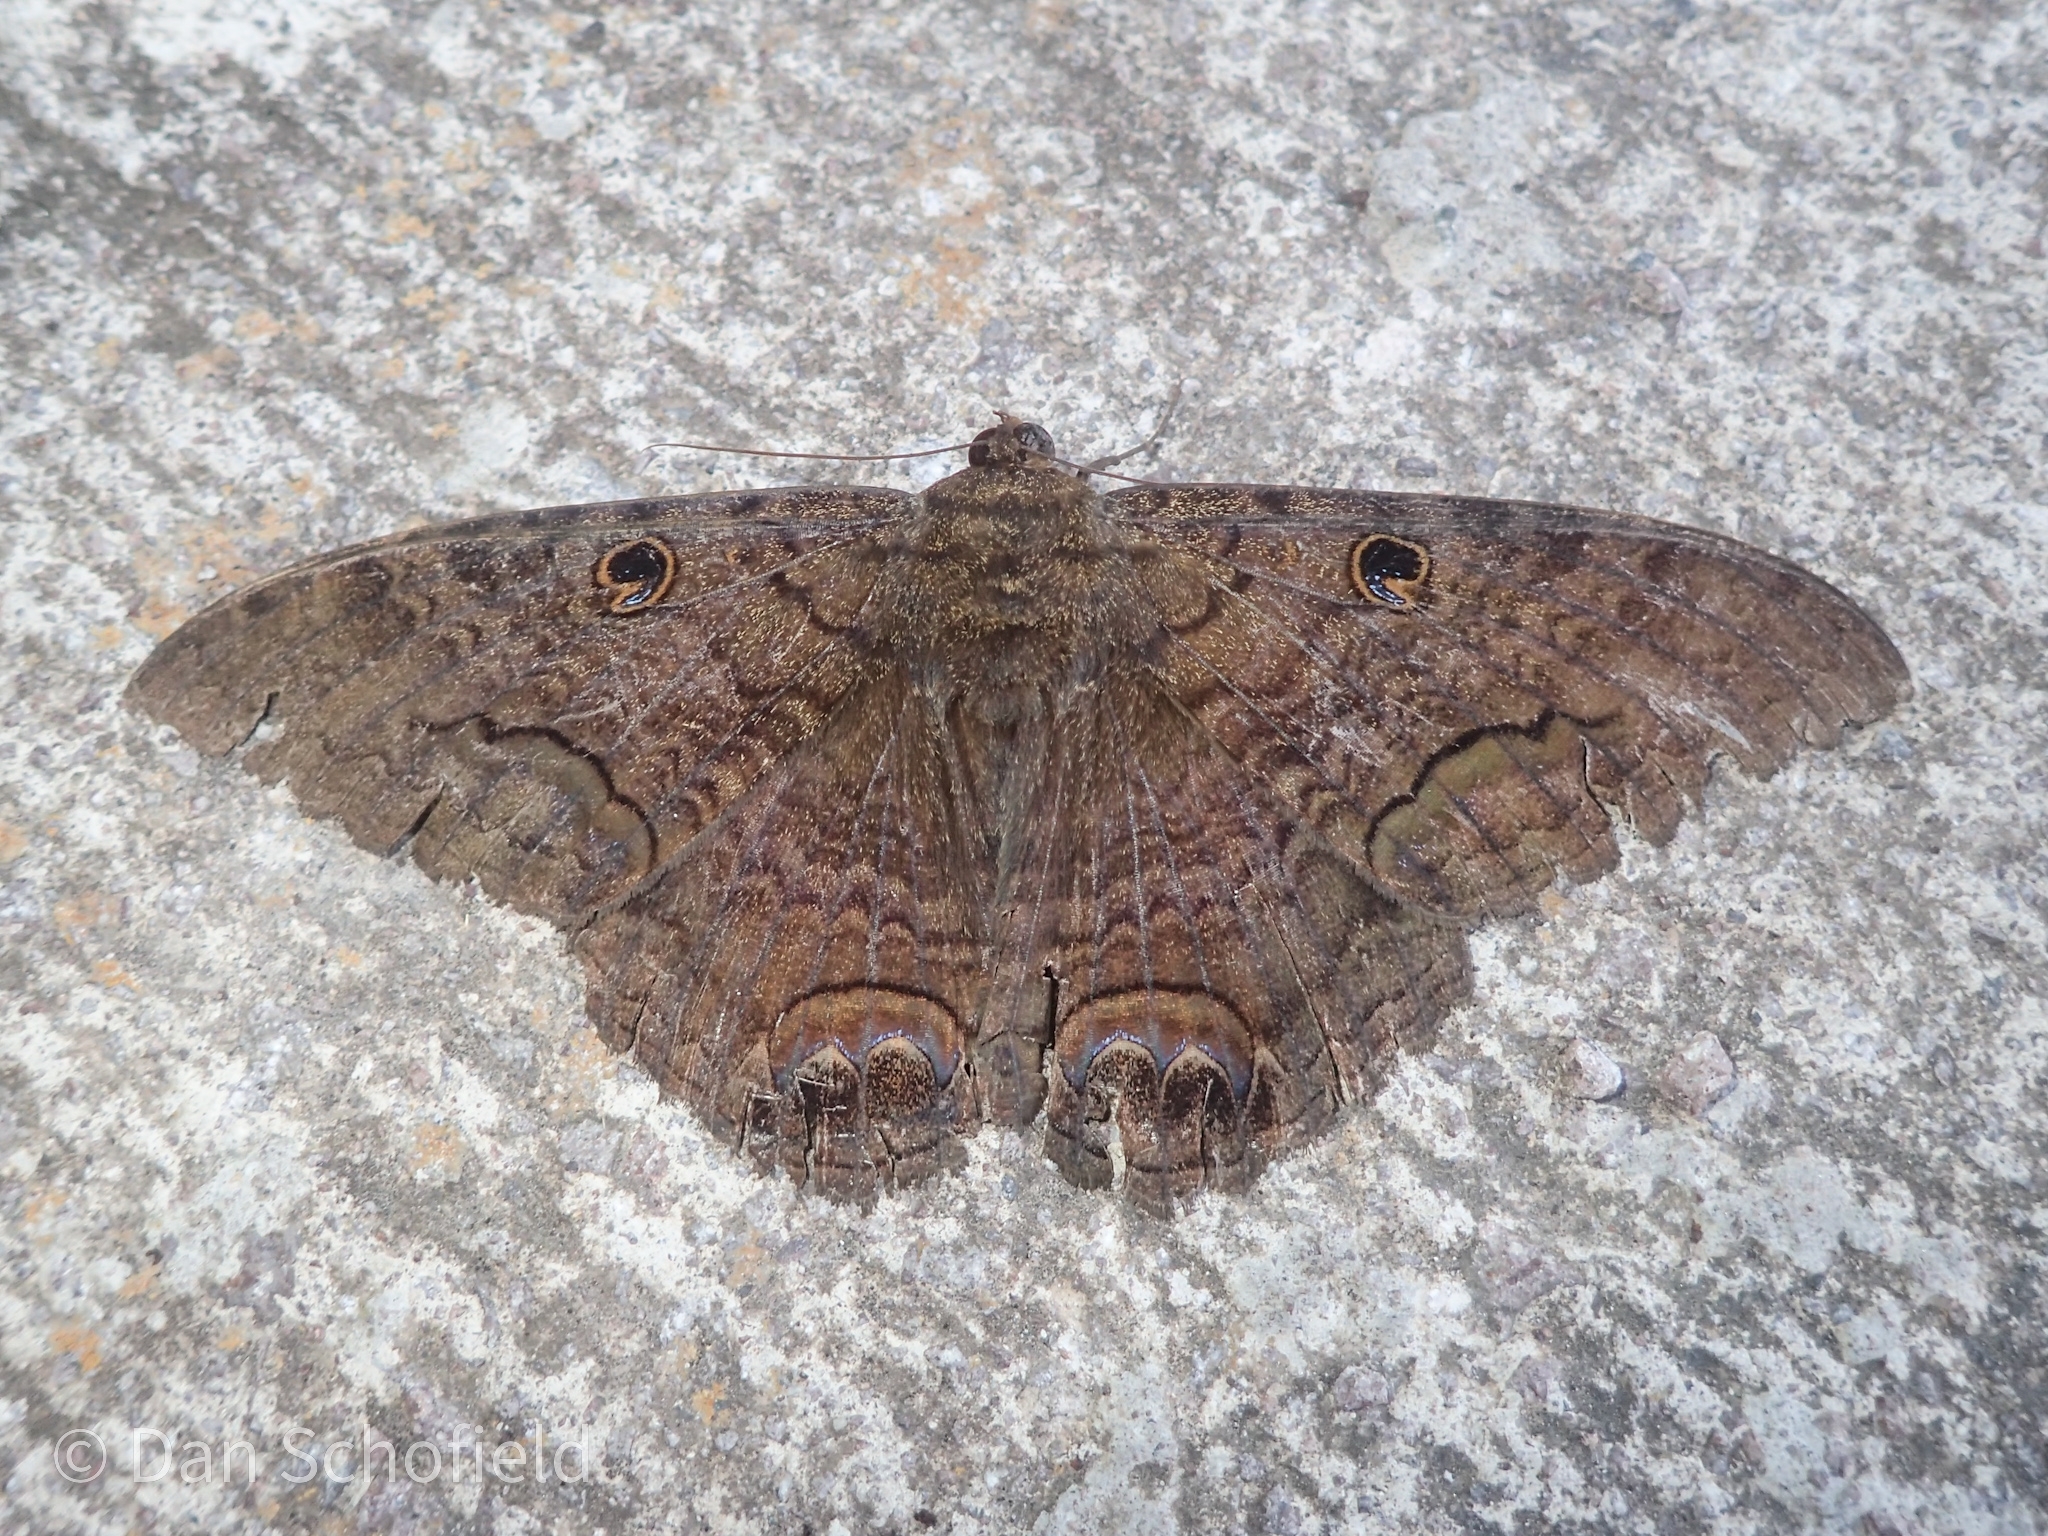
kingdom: Animalia
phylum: Arthropoda
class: Insecta
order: Lepidoptera
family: Erebidae
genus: Ascalapha
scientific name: Ascalapha odorata
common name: Black witch
